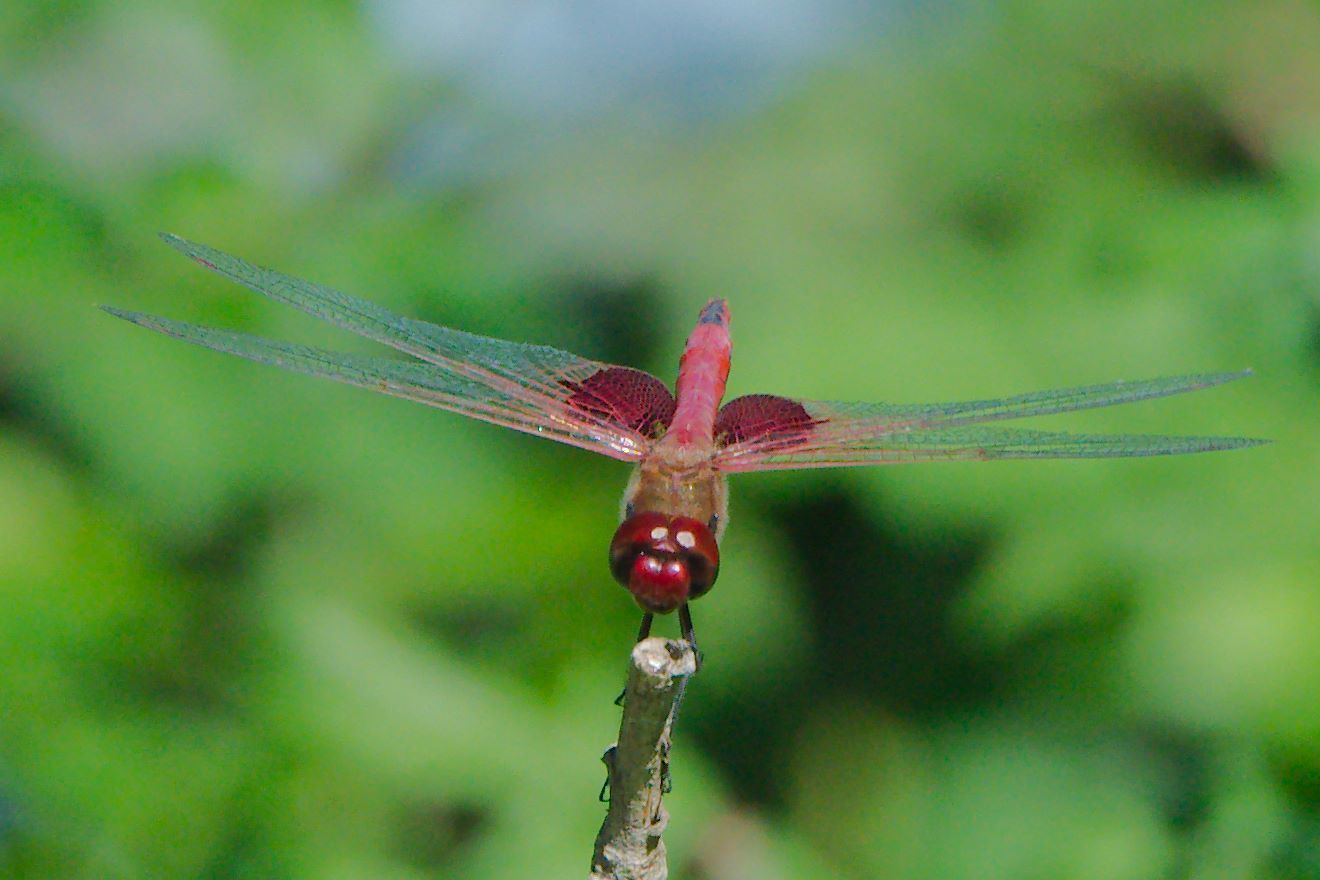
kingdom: Animalia
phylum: Arthropoda
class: Insecta
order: Odonata
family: Libellulidae
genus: Tramea
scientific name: Tramea onusta
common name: Red saddlebags
